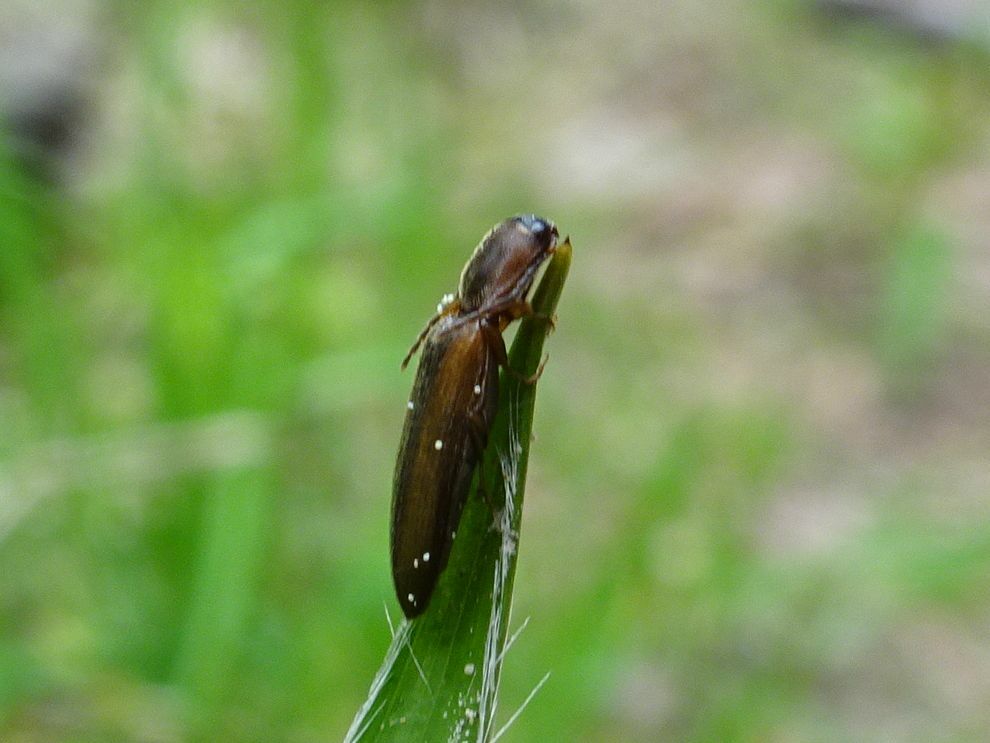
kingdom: Animalia
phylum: Arthropoda
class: Insecta
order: Coleoptera
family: Elateridae
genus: Dalopius
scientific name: Dalopius marginatus
